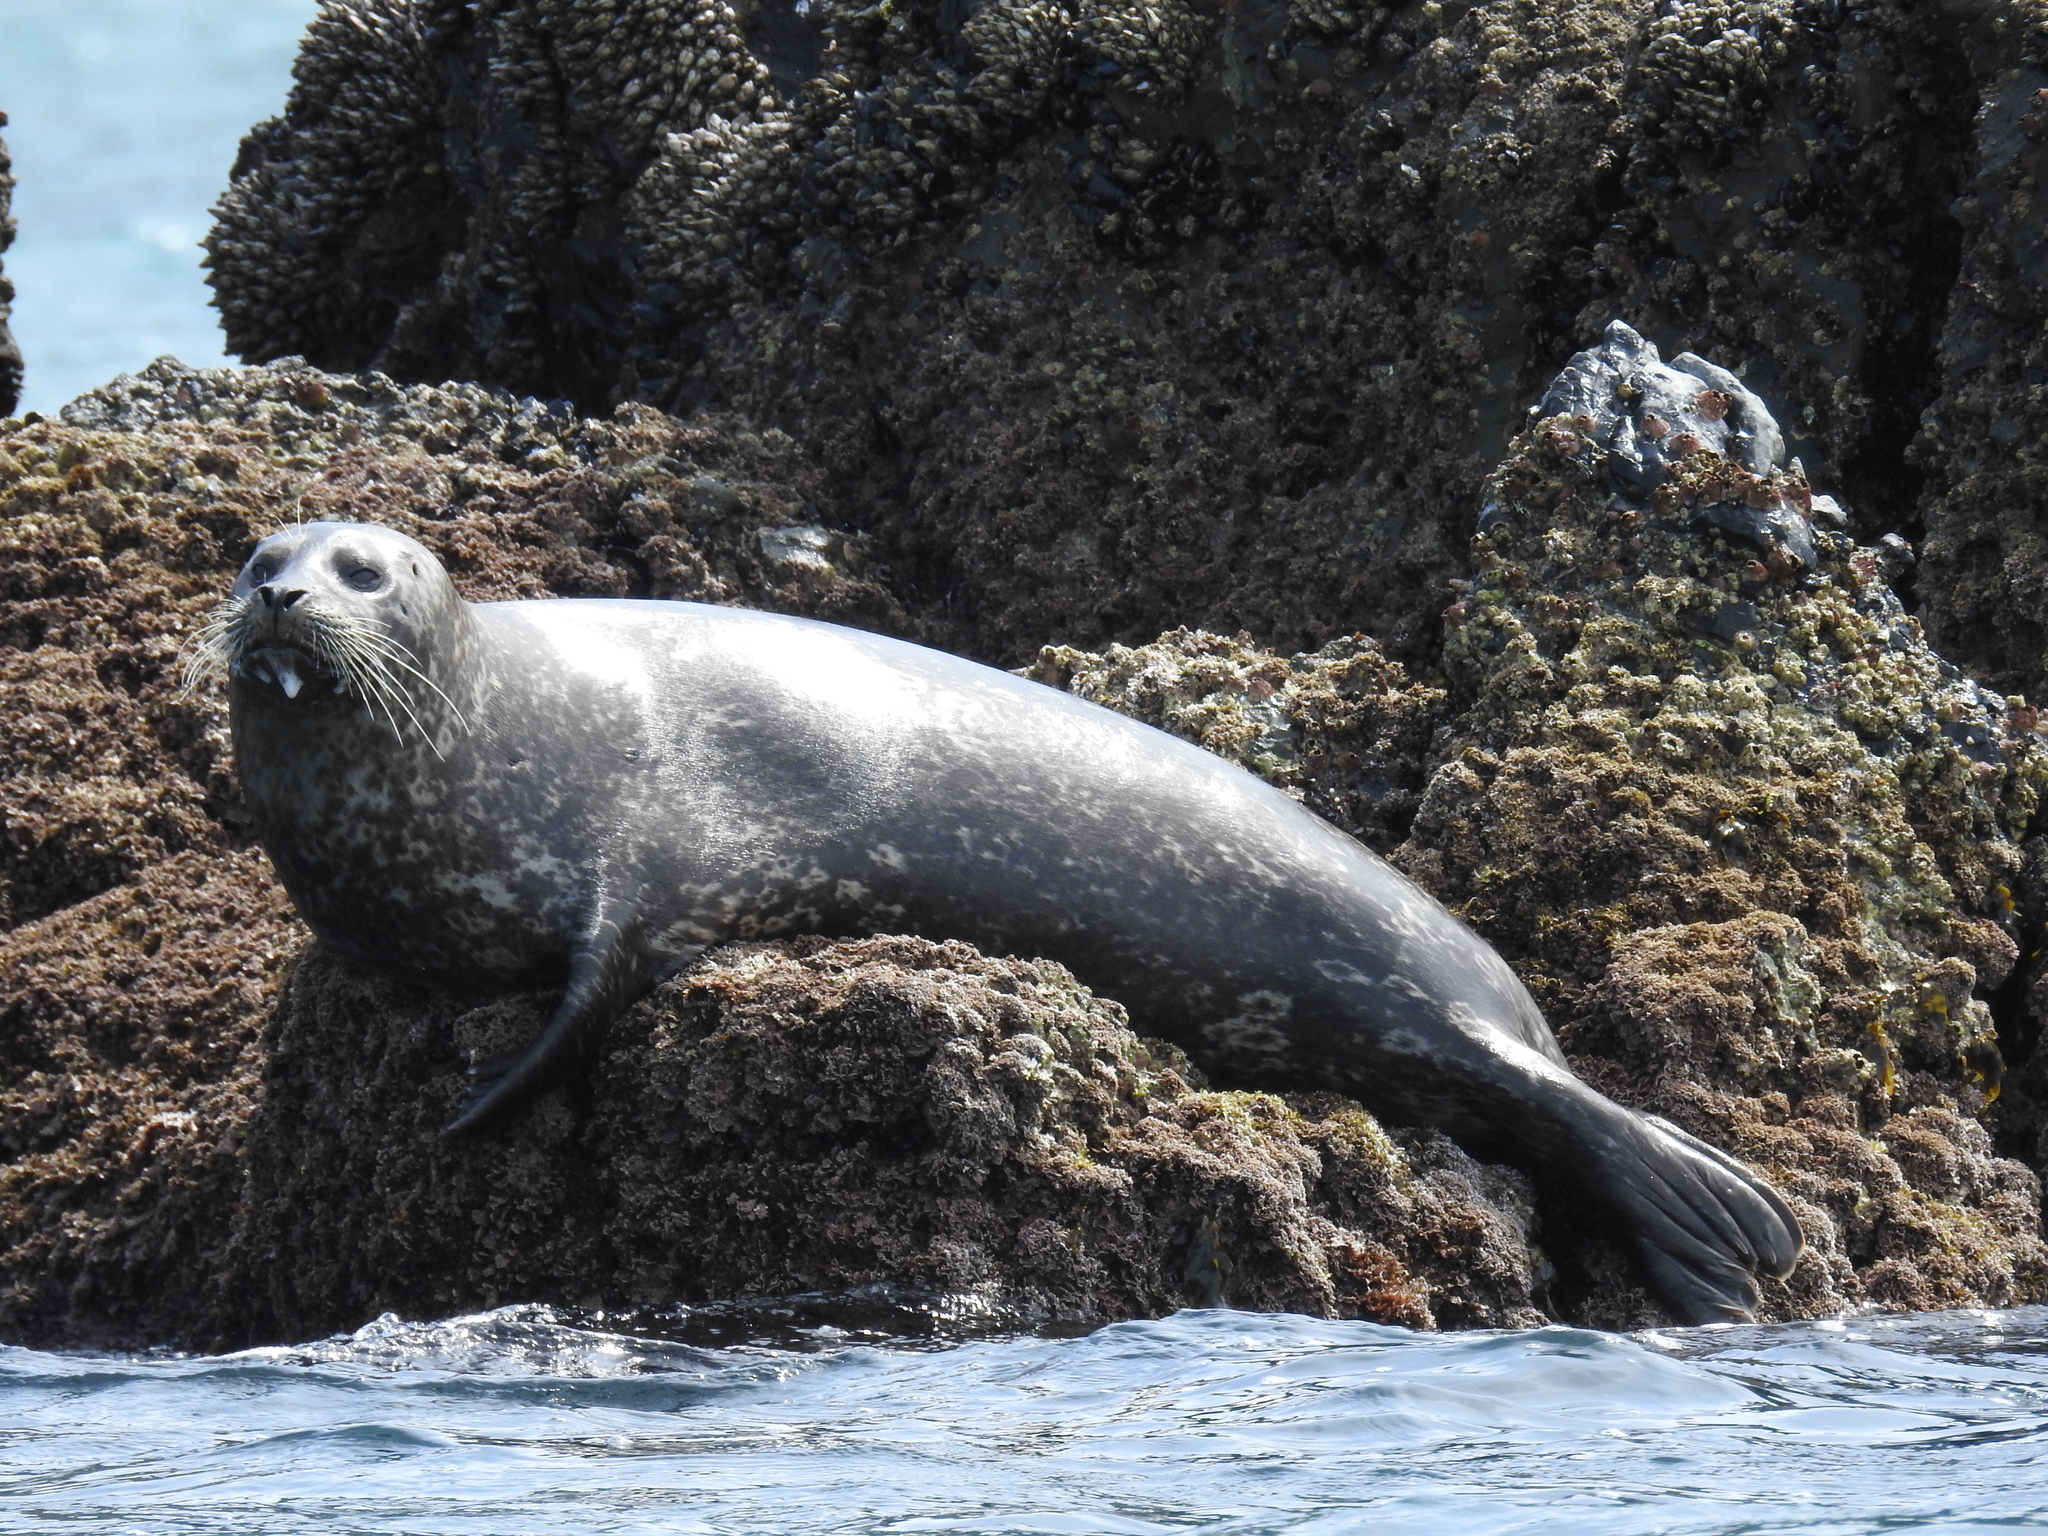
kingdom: Animalia
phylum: Chordata
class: Mammalia
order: Carnivora
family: Phocidae
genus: Phoca
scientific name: Phoca vitulina
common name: Harbor seal
